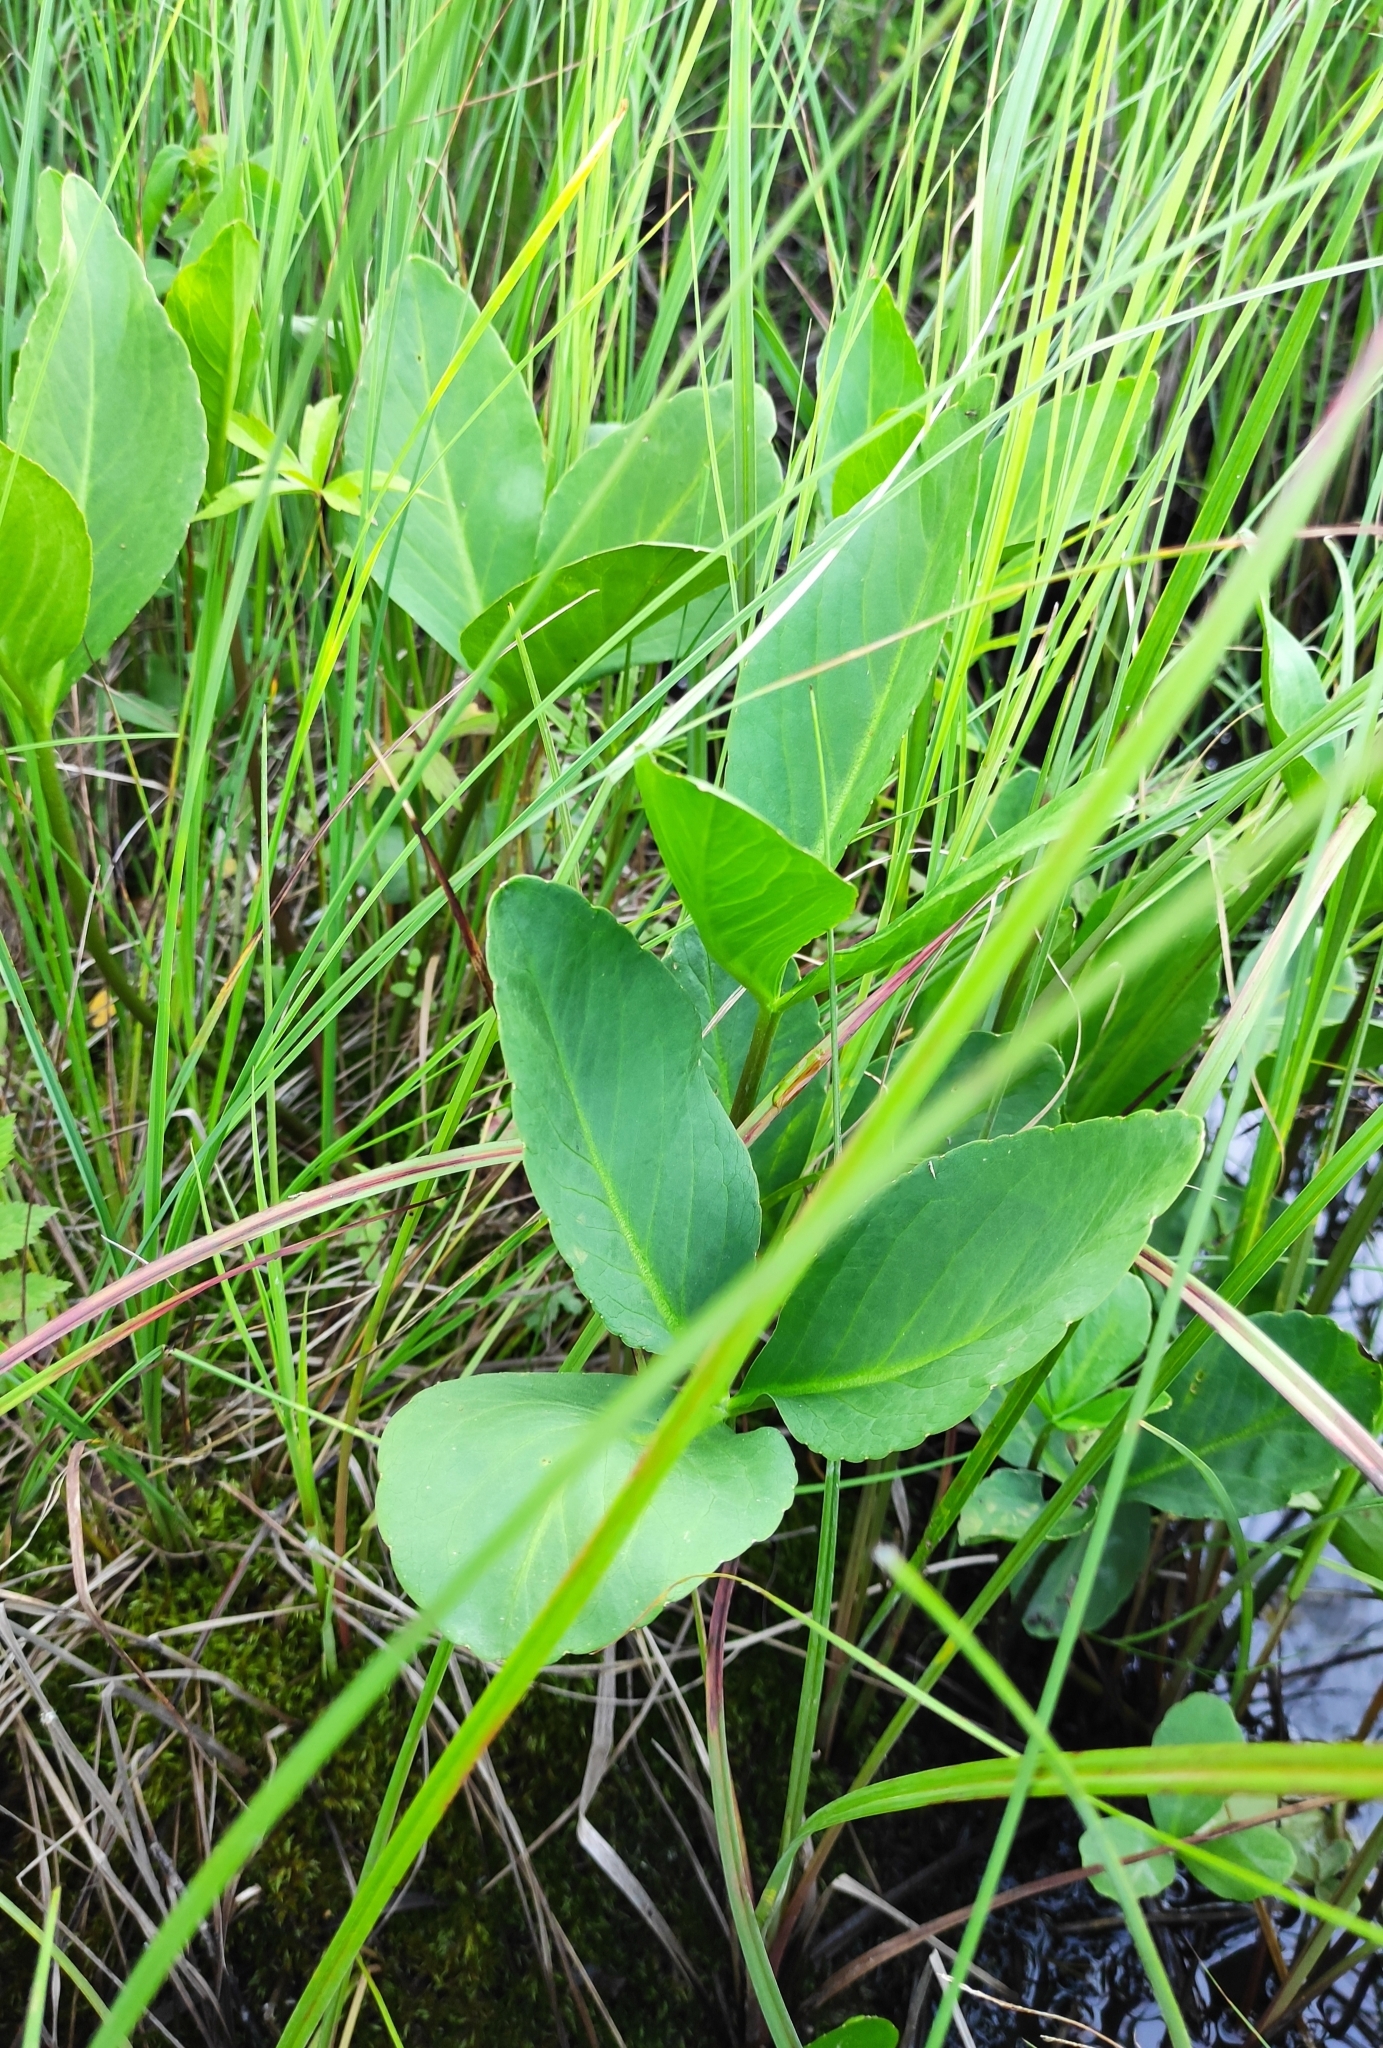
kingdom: Plantae
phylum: Tracheophyta
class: Magnoliopsida
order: Asterales
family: Menyanthaceae
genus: Menyanthes
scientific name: Menyanthes trifoliata
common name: Bogbean
